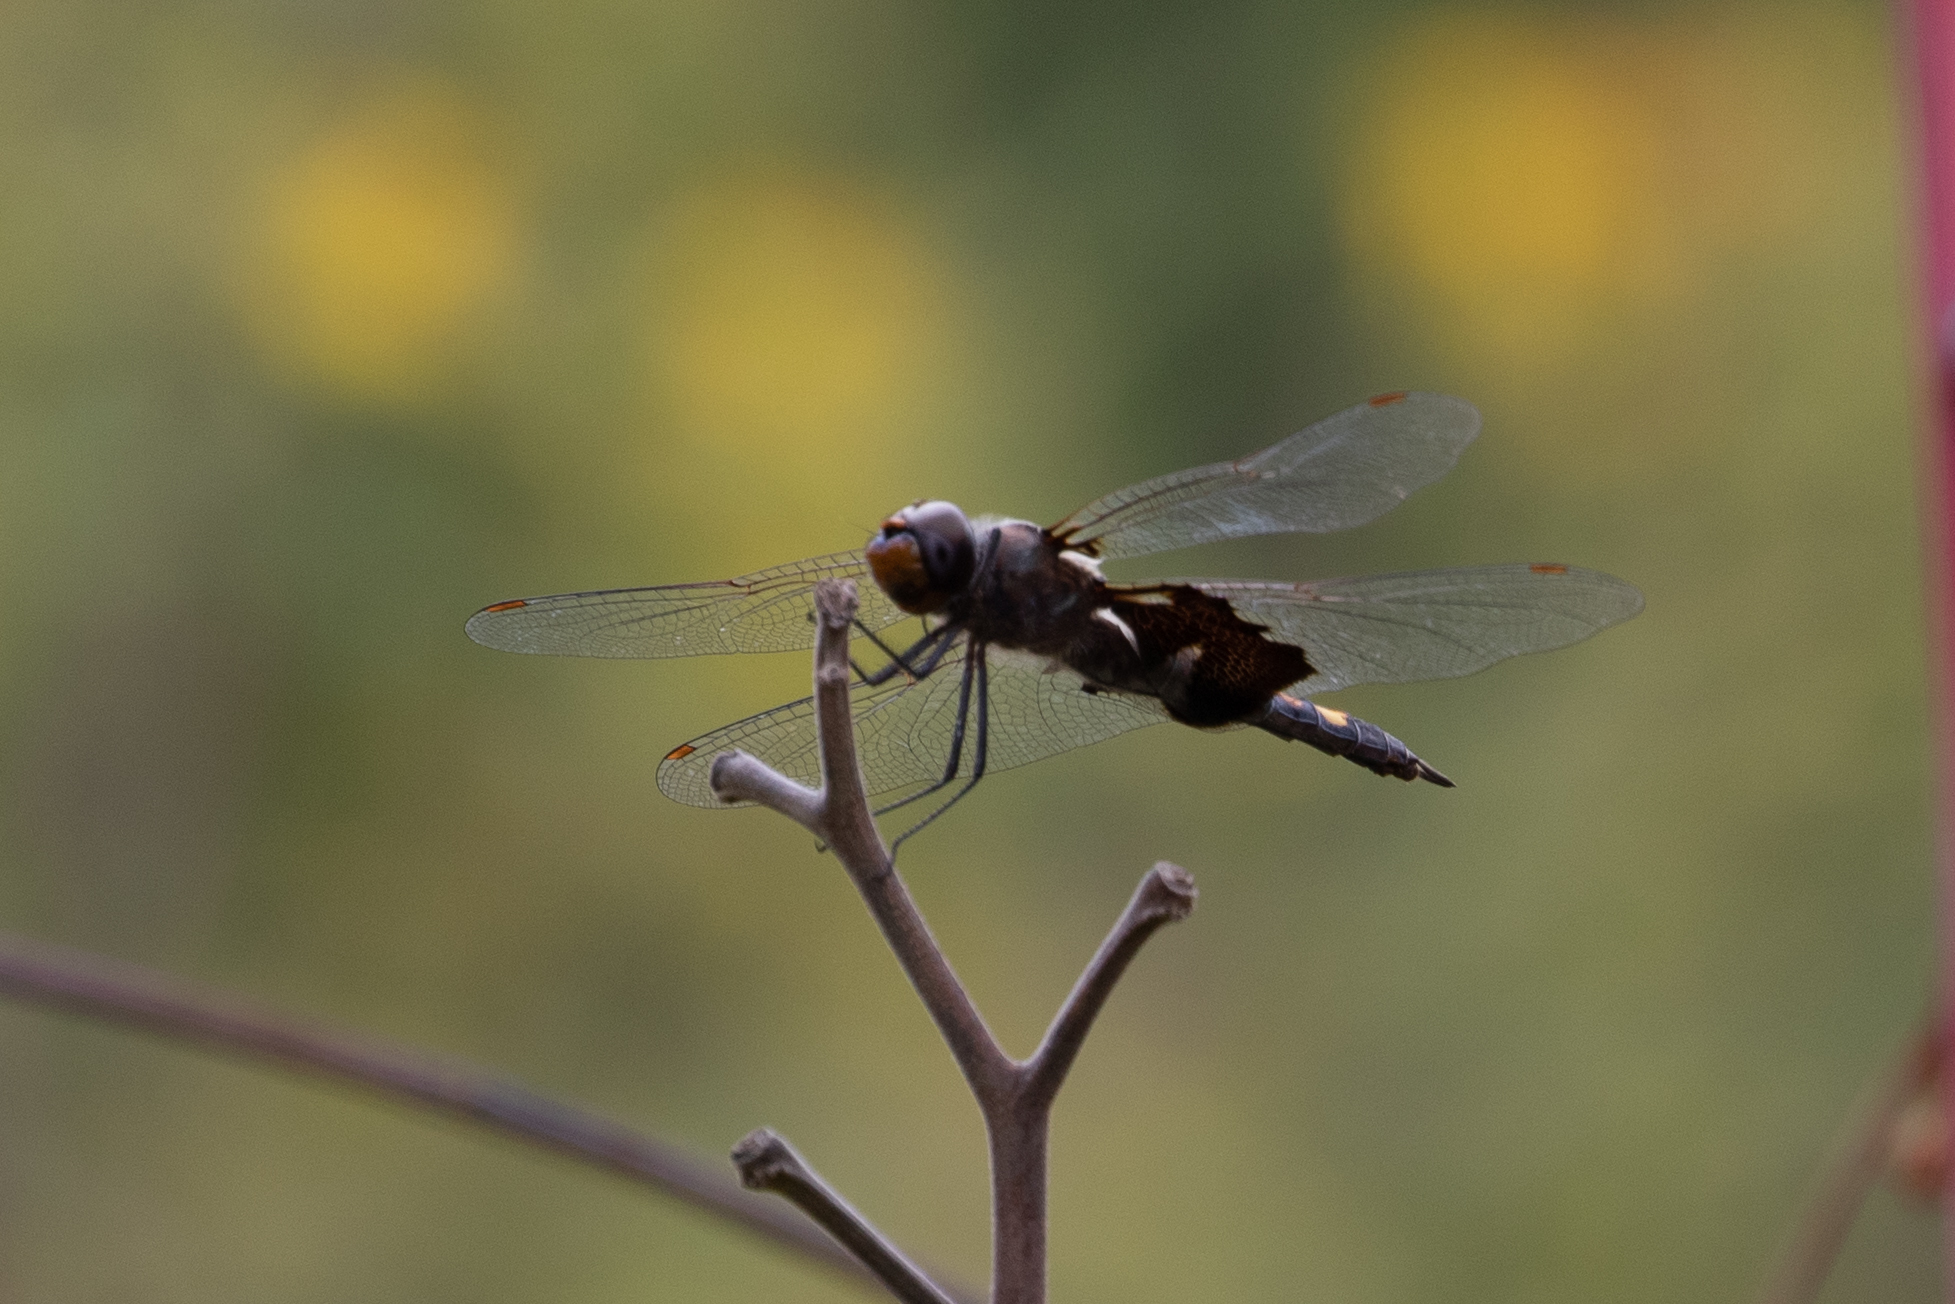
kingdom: Animalia
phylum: Arthropoda
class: Insecta
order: Odonata
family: Libellulidae
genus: Tramea
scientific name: Tramea lacerata
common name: Black saddlebags
